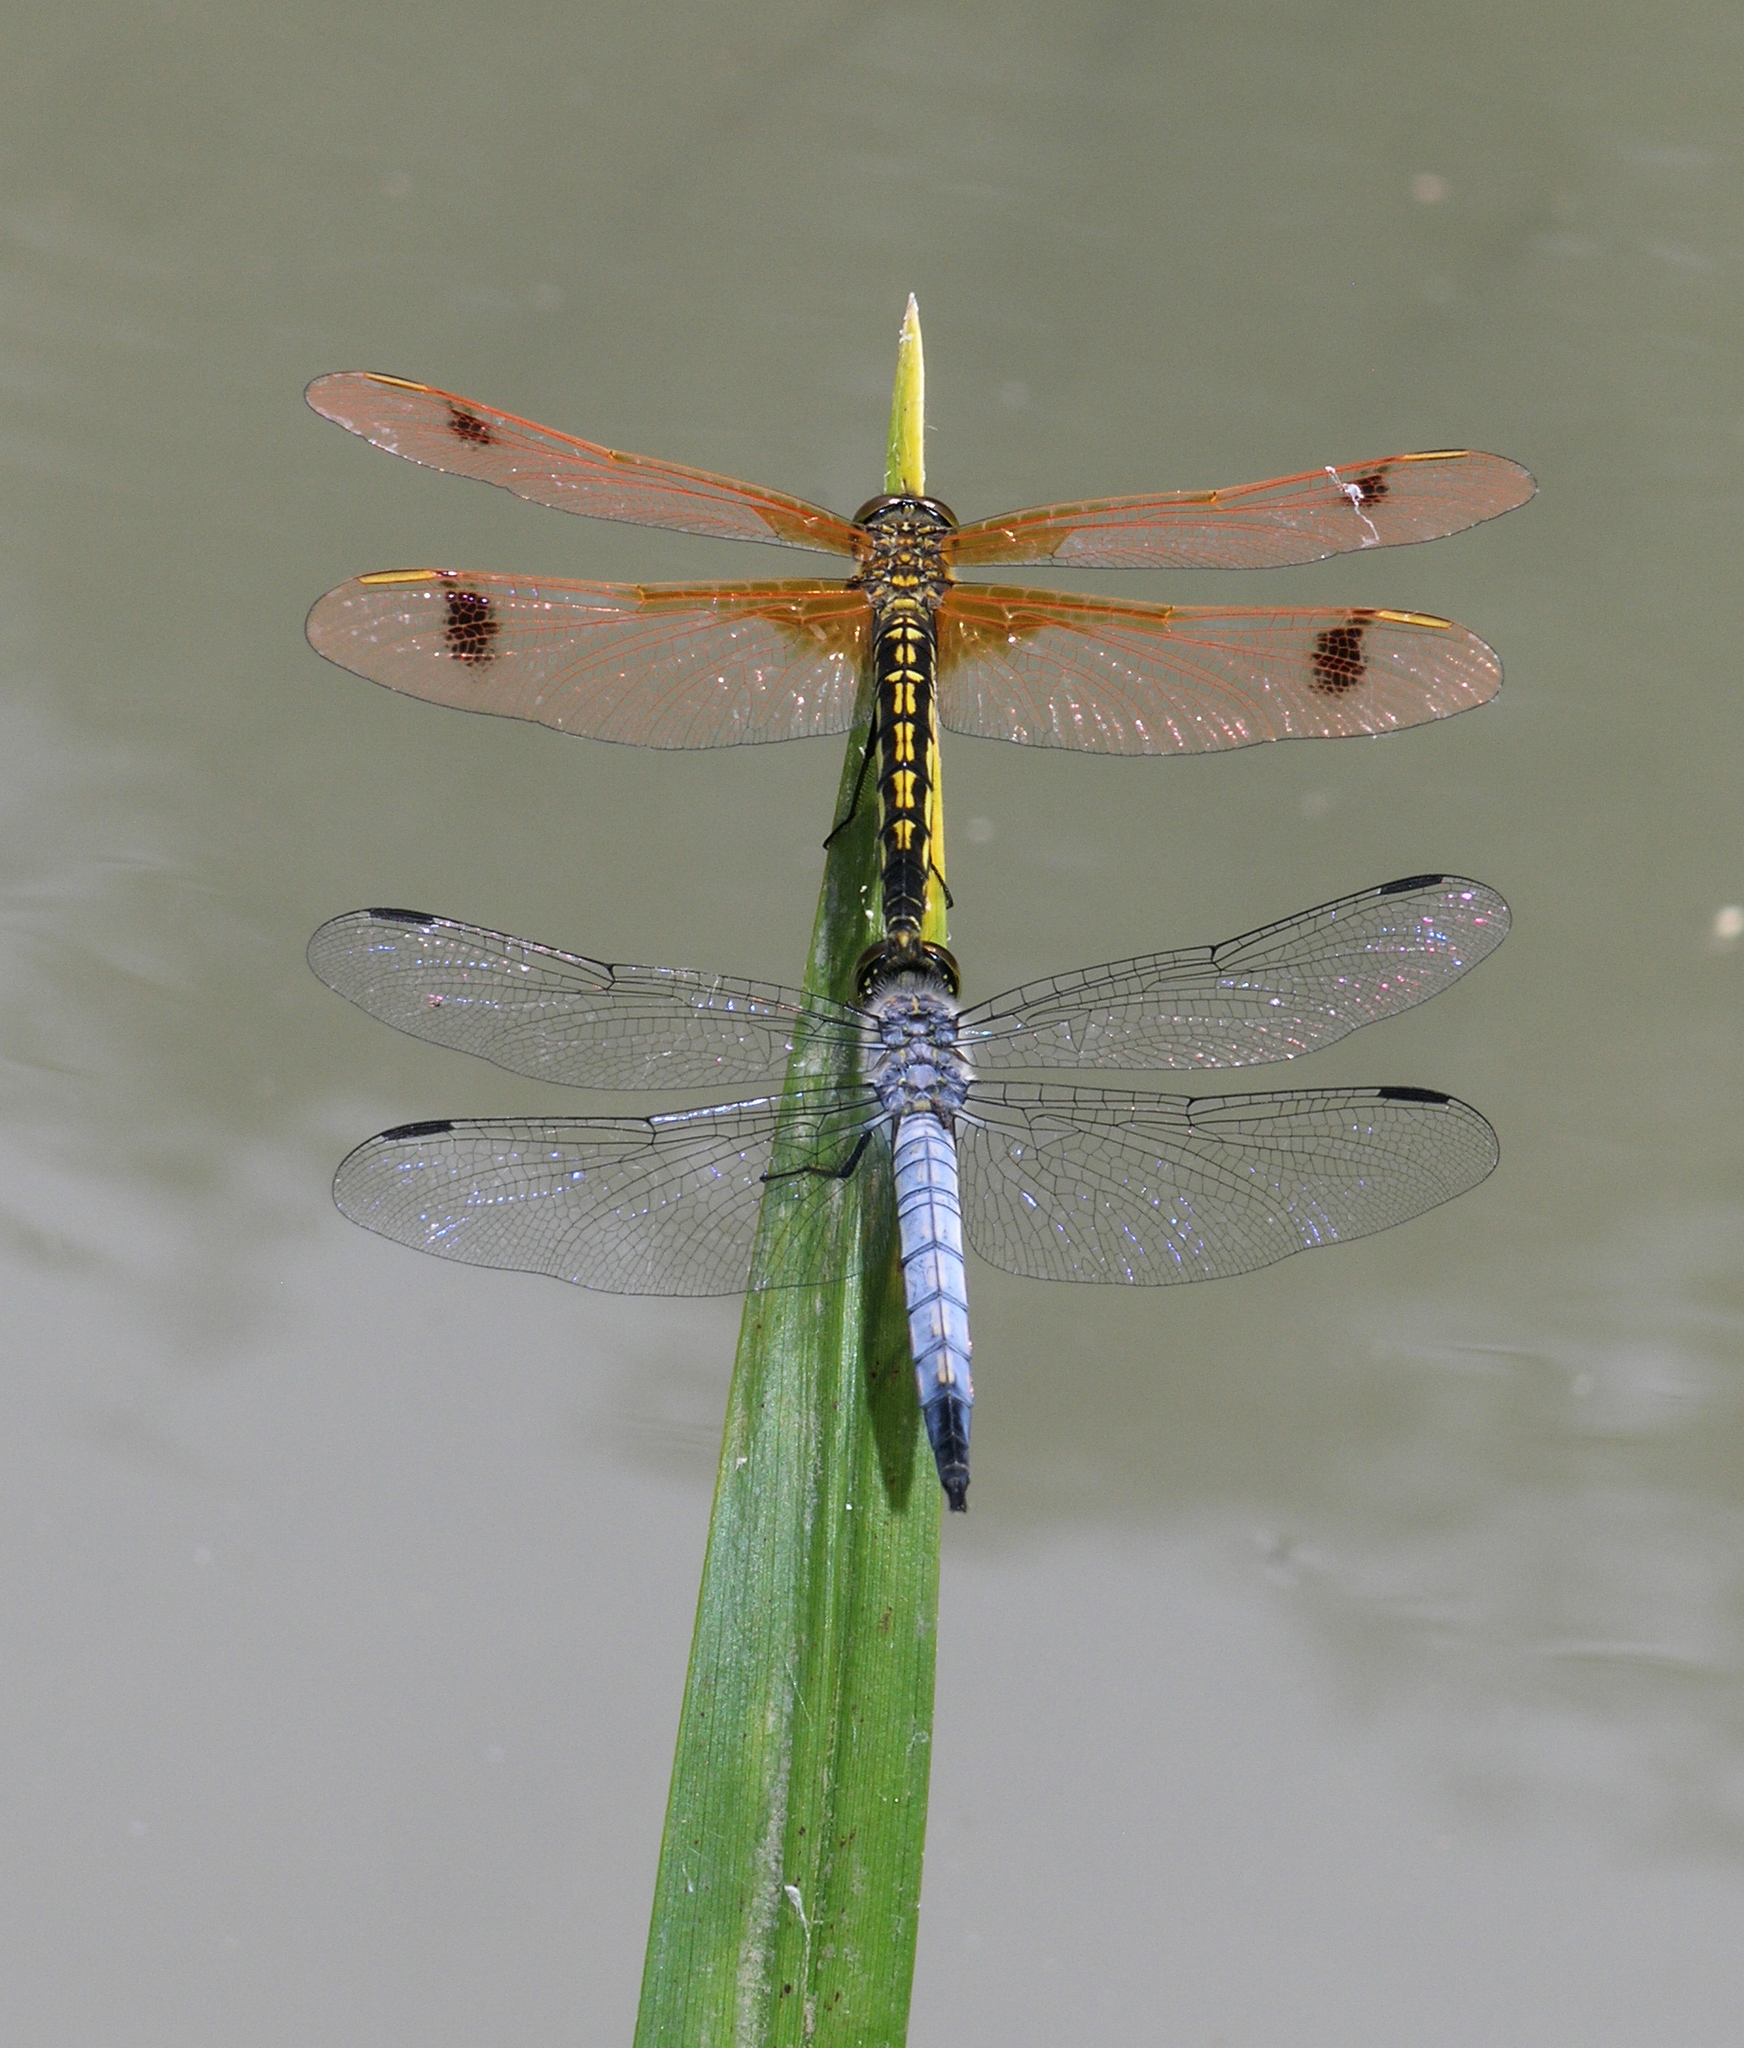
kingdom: Animalia
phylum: Arthropoda
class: Insecta
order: Odonata
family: Libellulidae
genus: Deielia
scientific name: Deielia phaon
